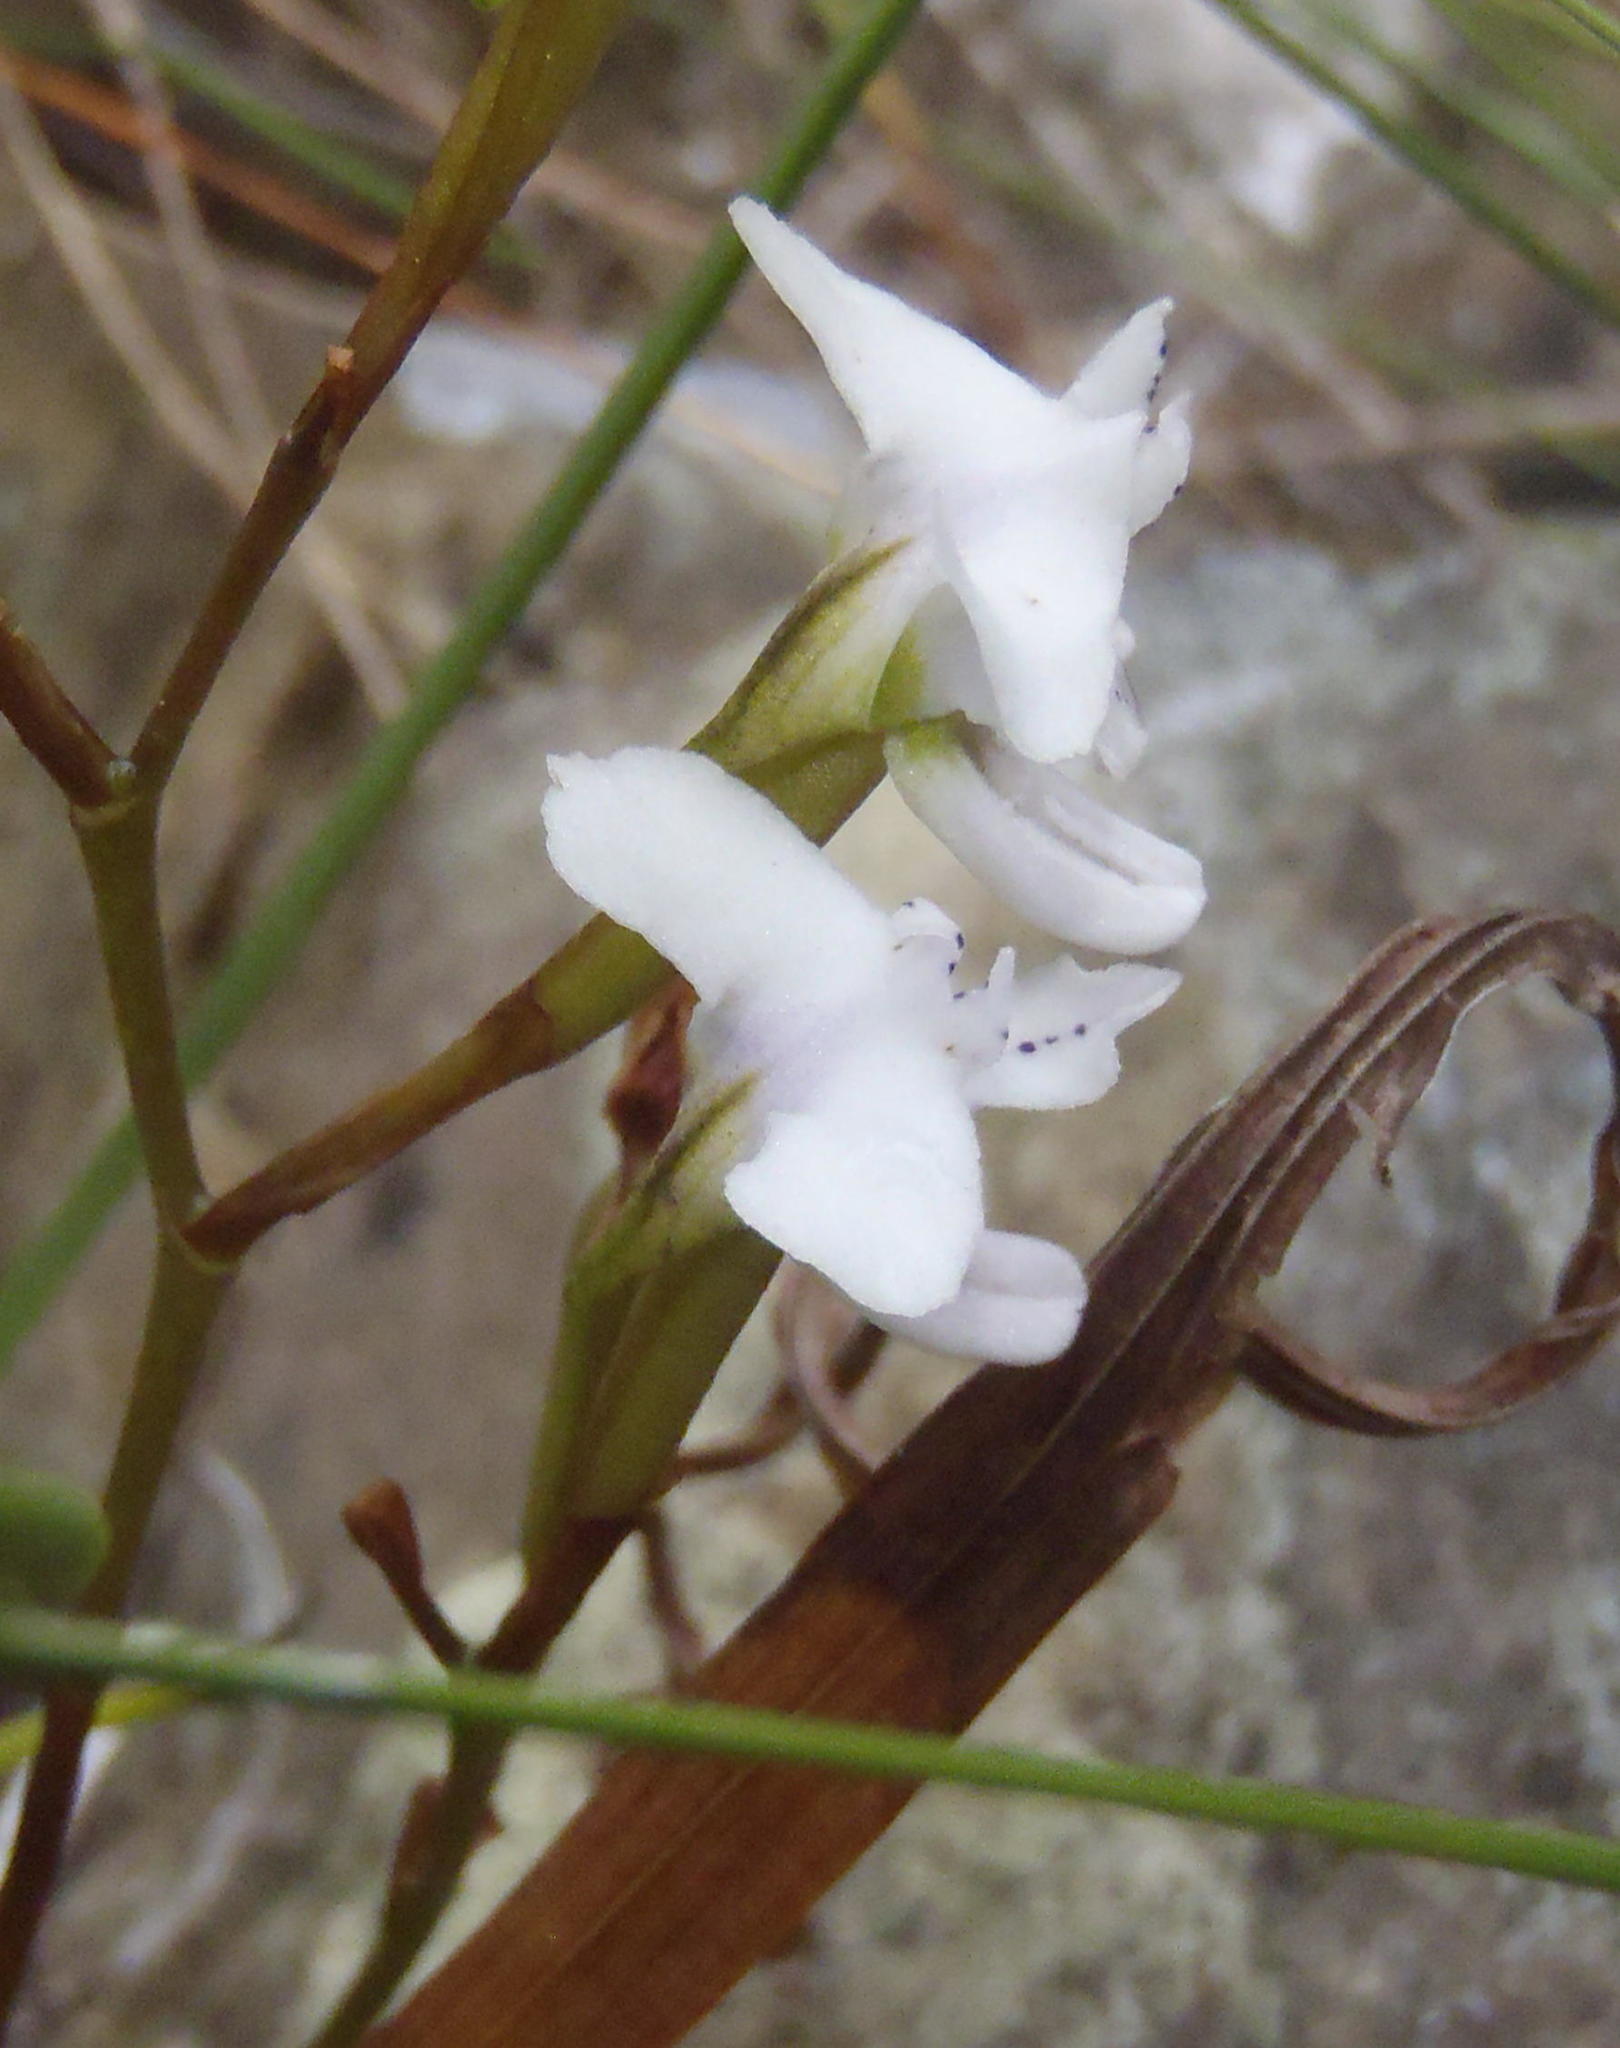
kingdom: Plantae
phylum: Tracheophyta
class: Liliopsida
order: Asparagales
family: Orchidaceae
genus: Disa
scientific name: Disa sagittalis
